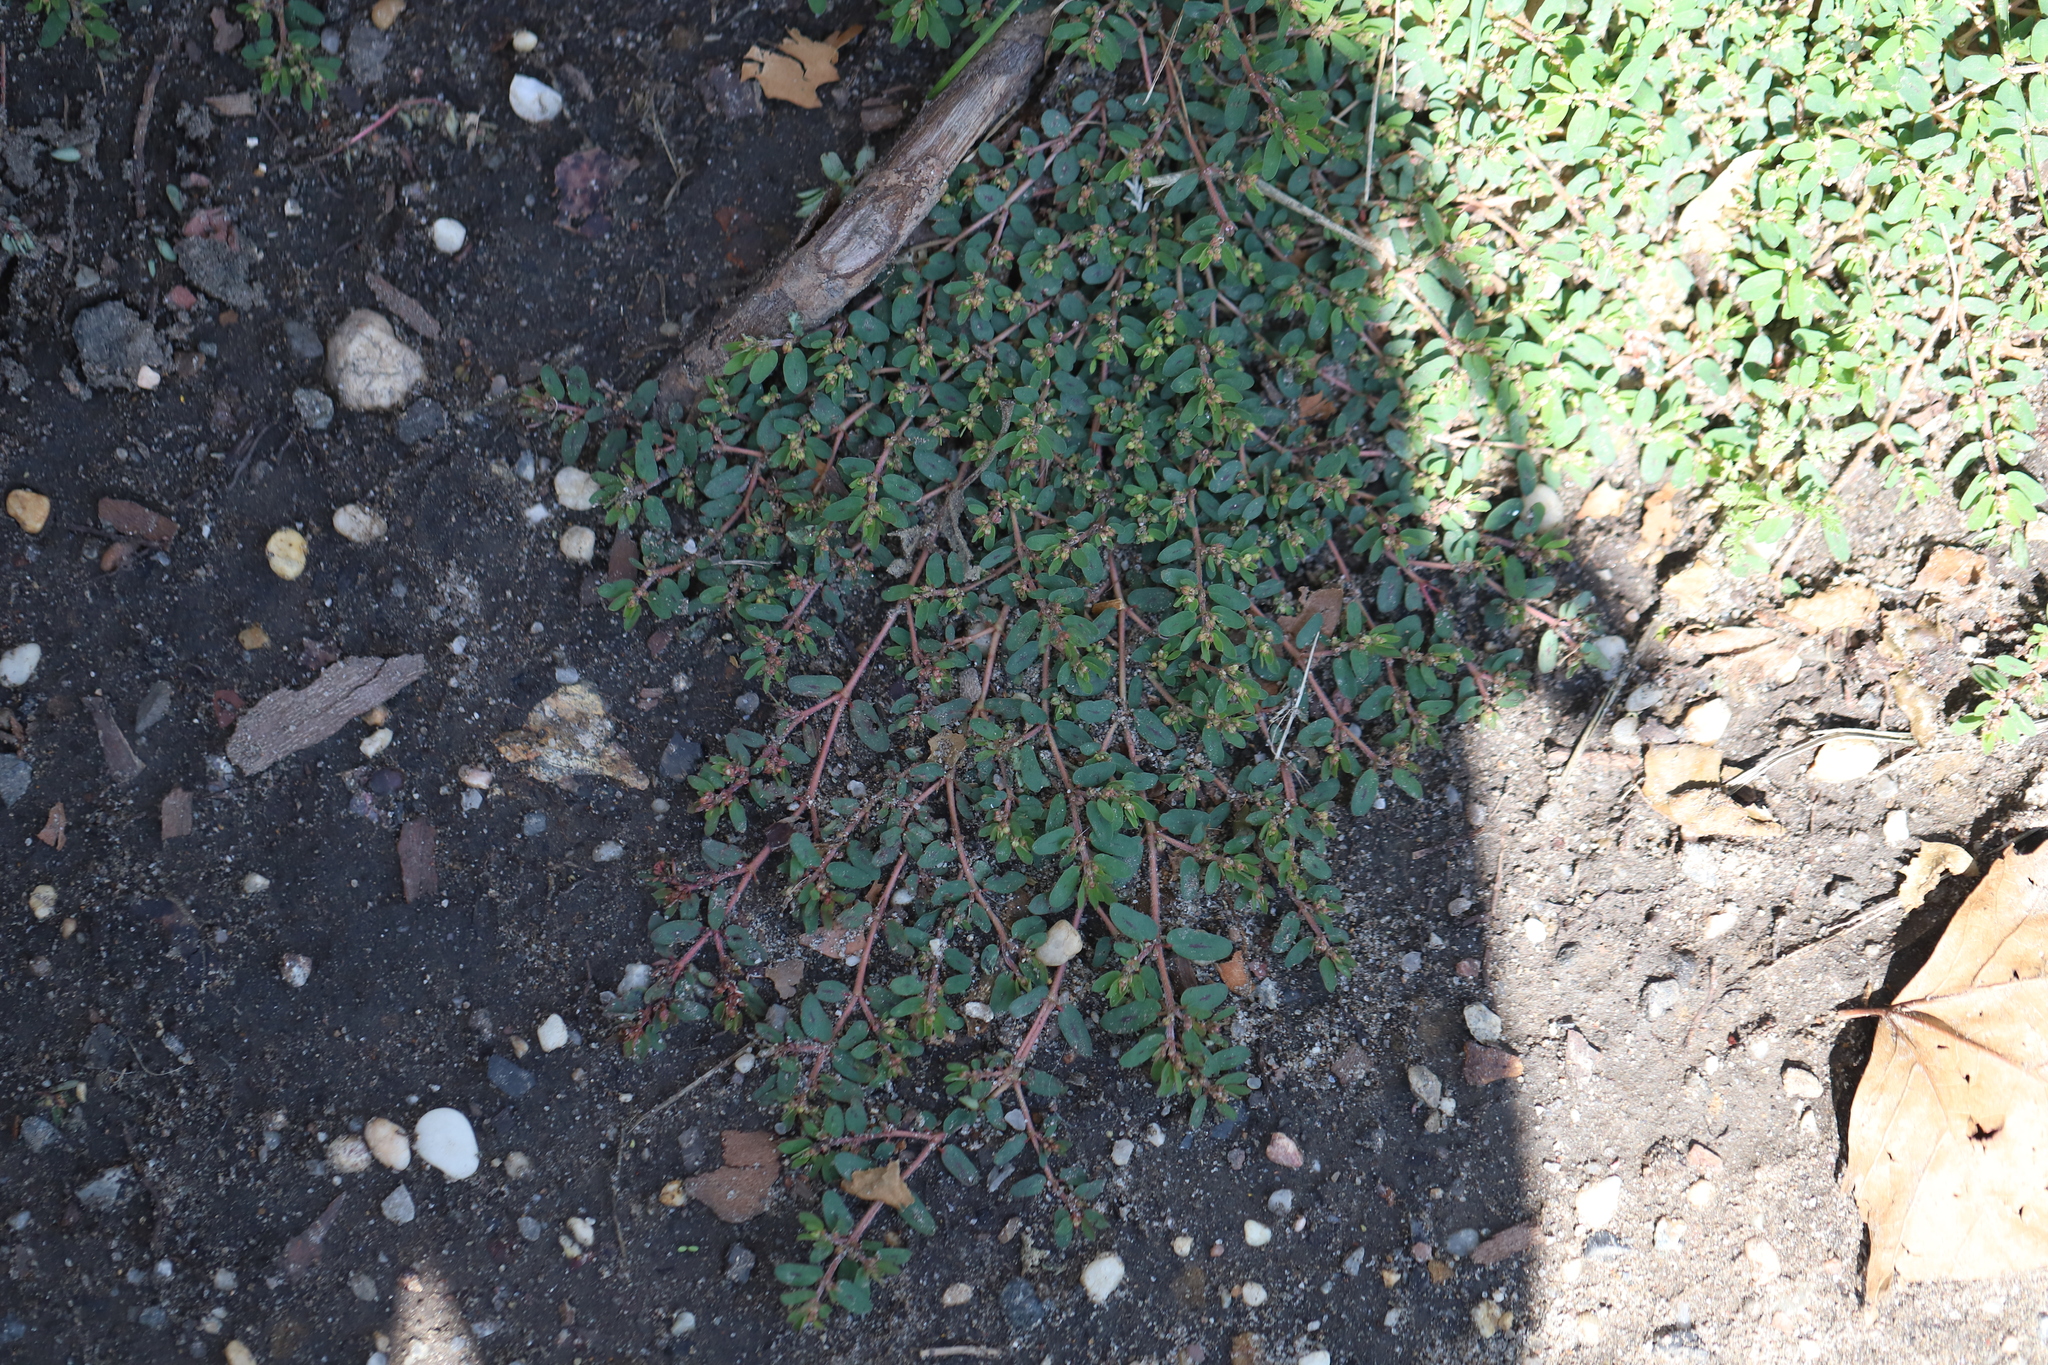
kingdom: Plantae
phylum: Tracheophyta
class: Magnoliopsida
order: Malpighiales
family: Euphorbiaceae
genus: Euphorbia
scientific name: Euphorbia maculata
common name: Spotted spurge
